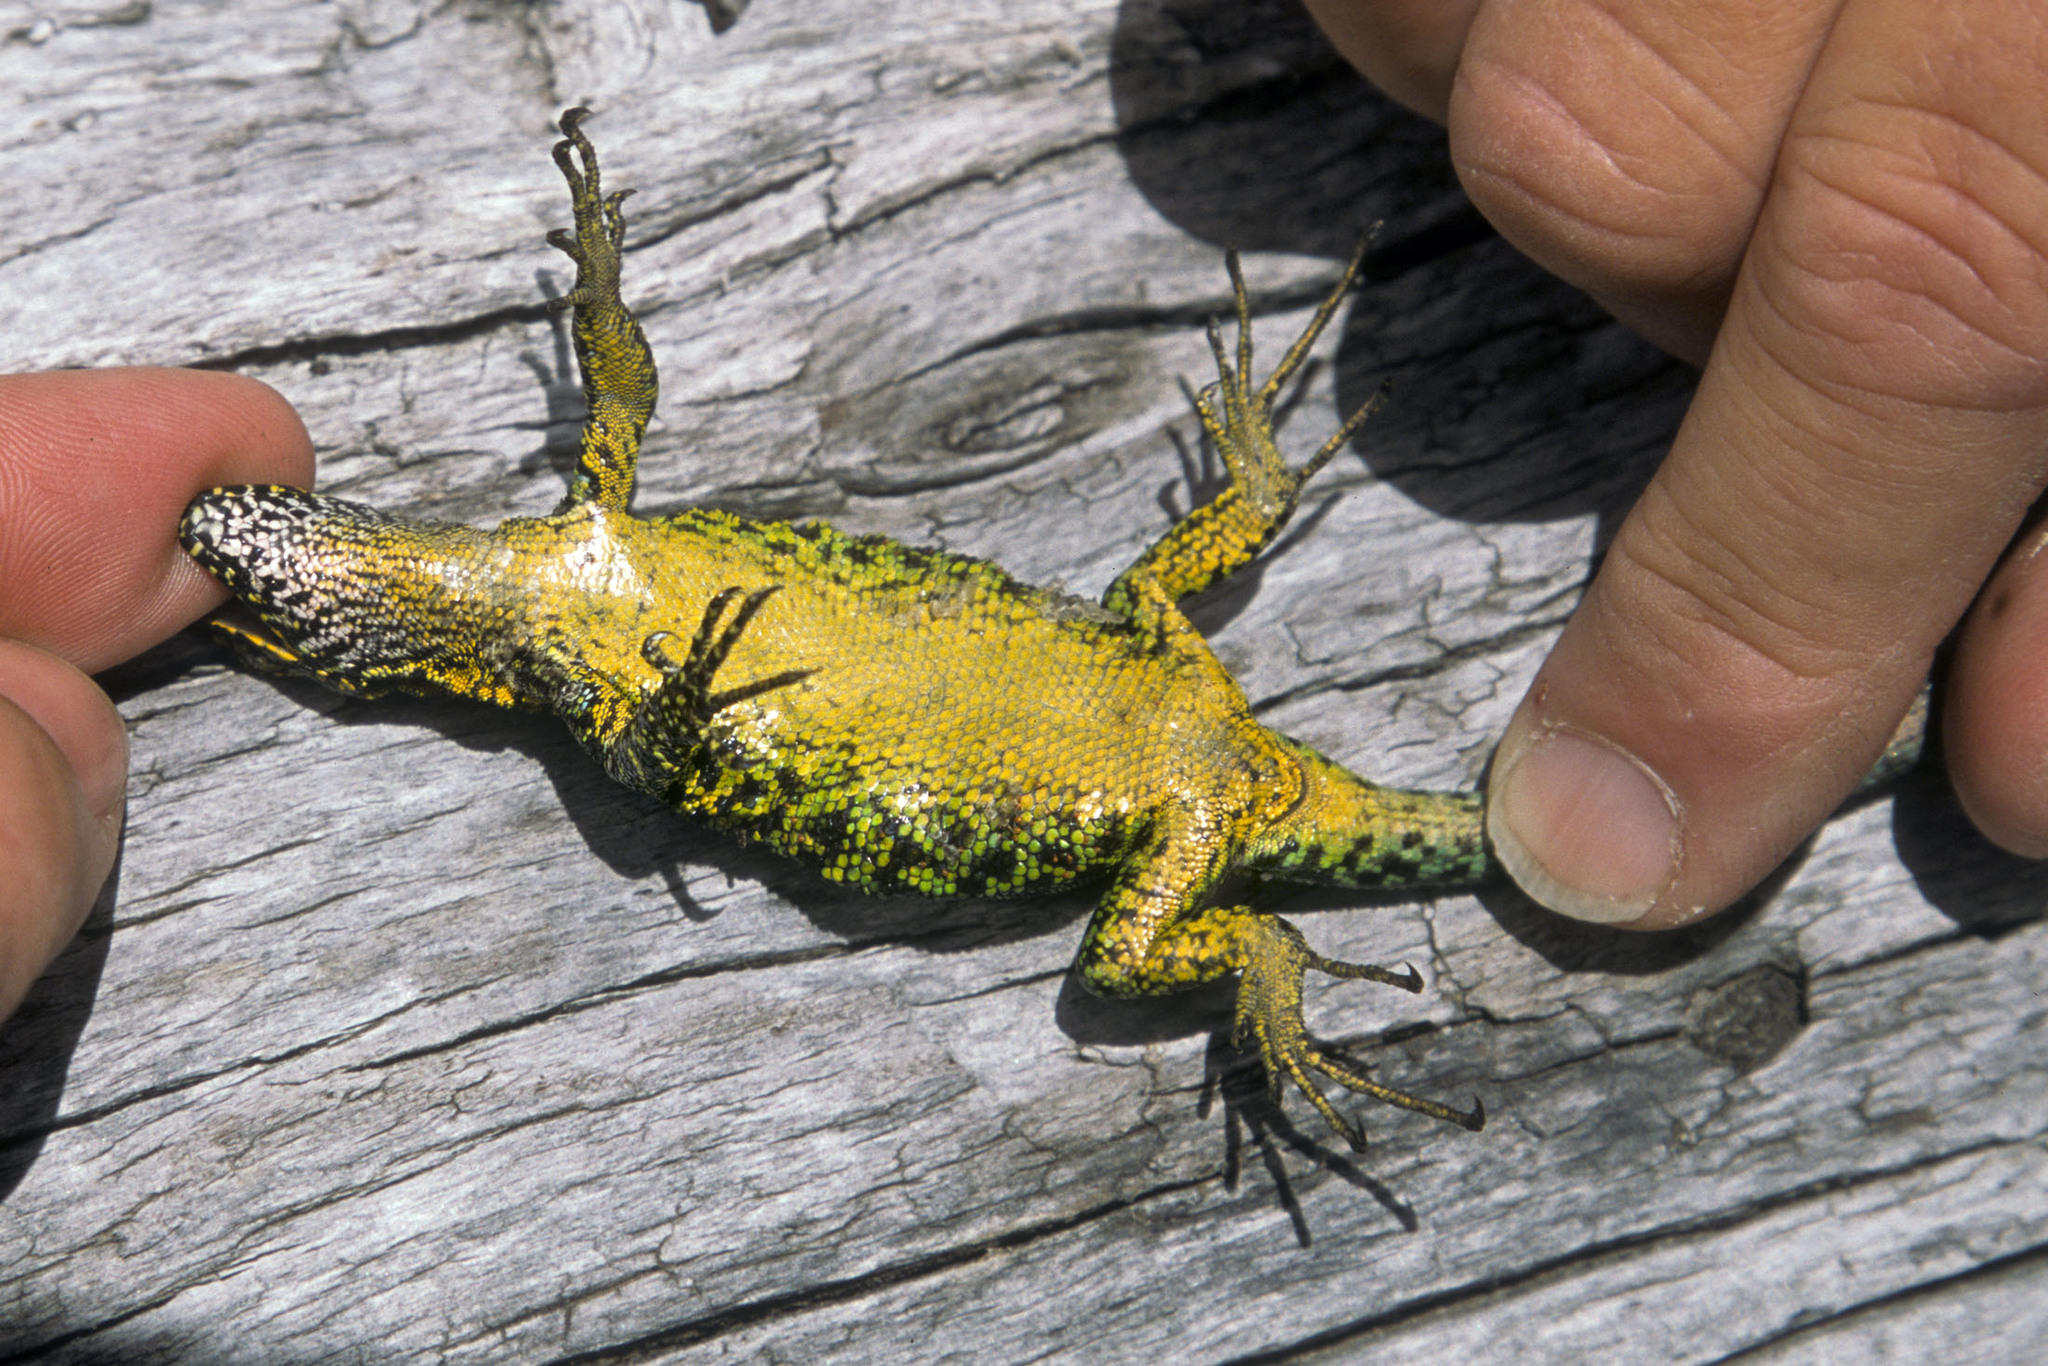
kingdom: Animalia
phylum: Chordata
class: Squamata
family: Liolaemidae
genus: Liolaemus
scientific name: Liolaemus pictus
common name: Painted tree iguana
